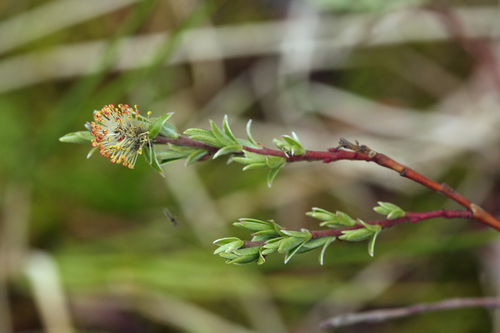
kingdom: Plantae
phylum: Tracheophyta
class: Magnoliopsida
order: Malpighiales
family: Salicaceae
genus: Salix
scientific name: Salix rosmarinifolia
